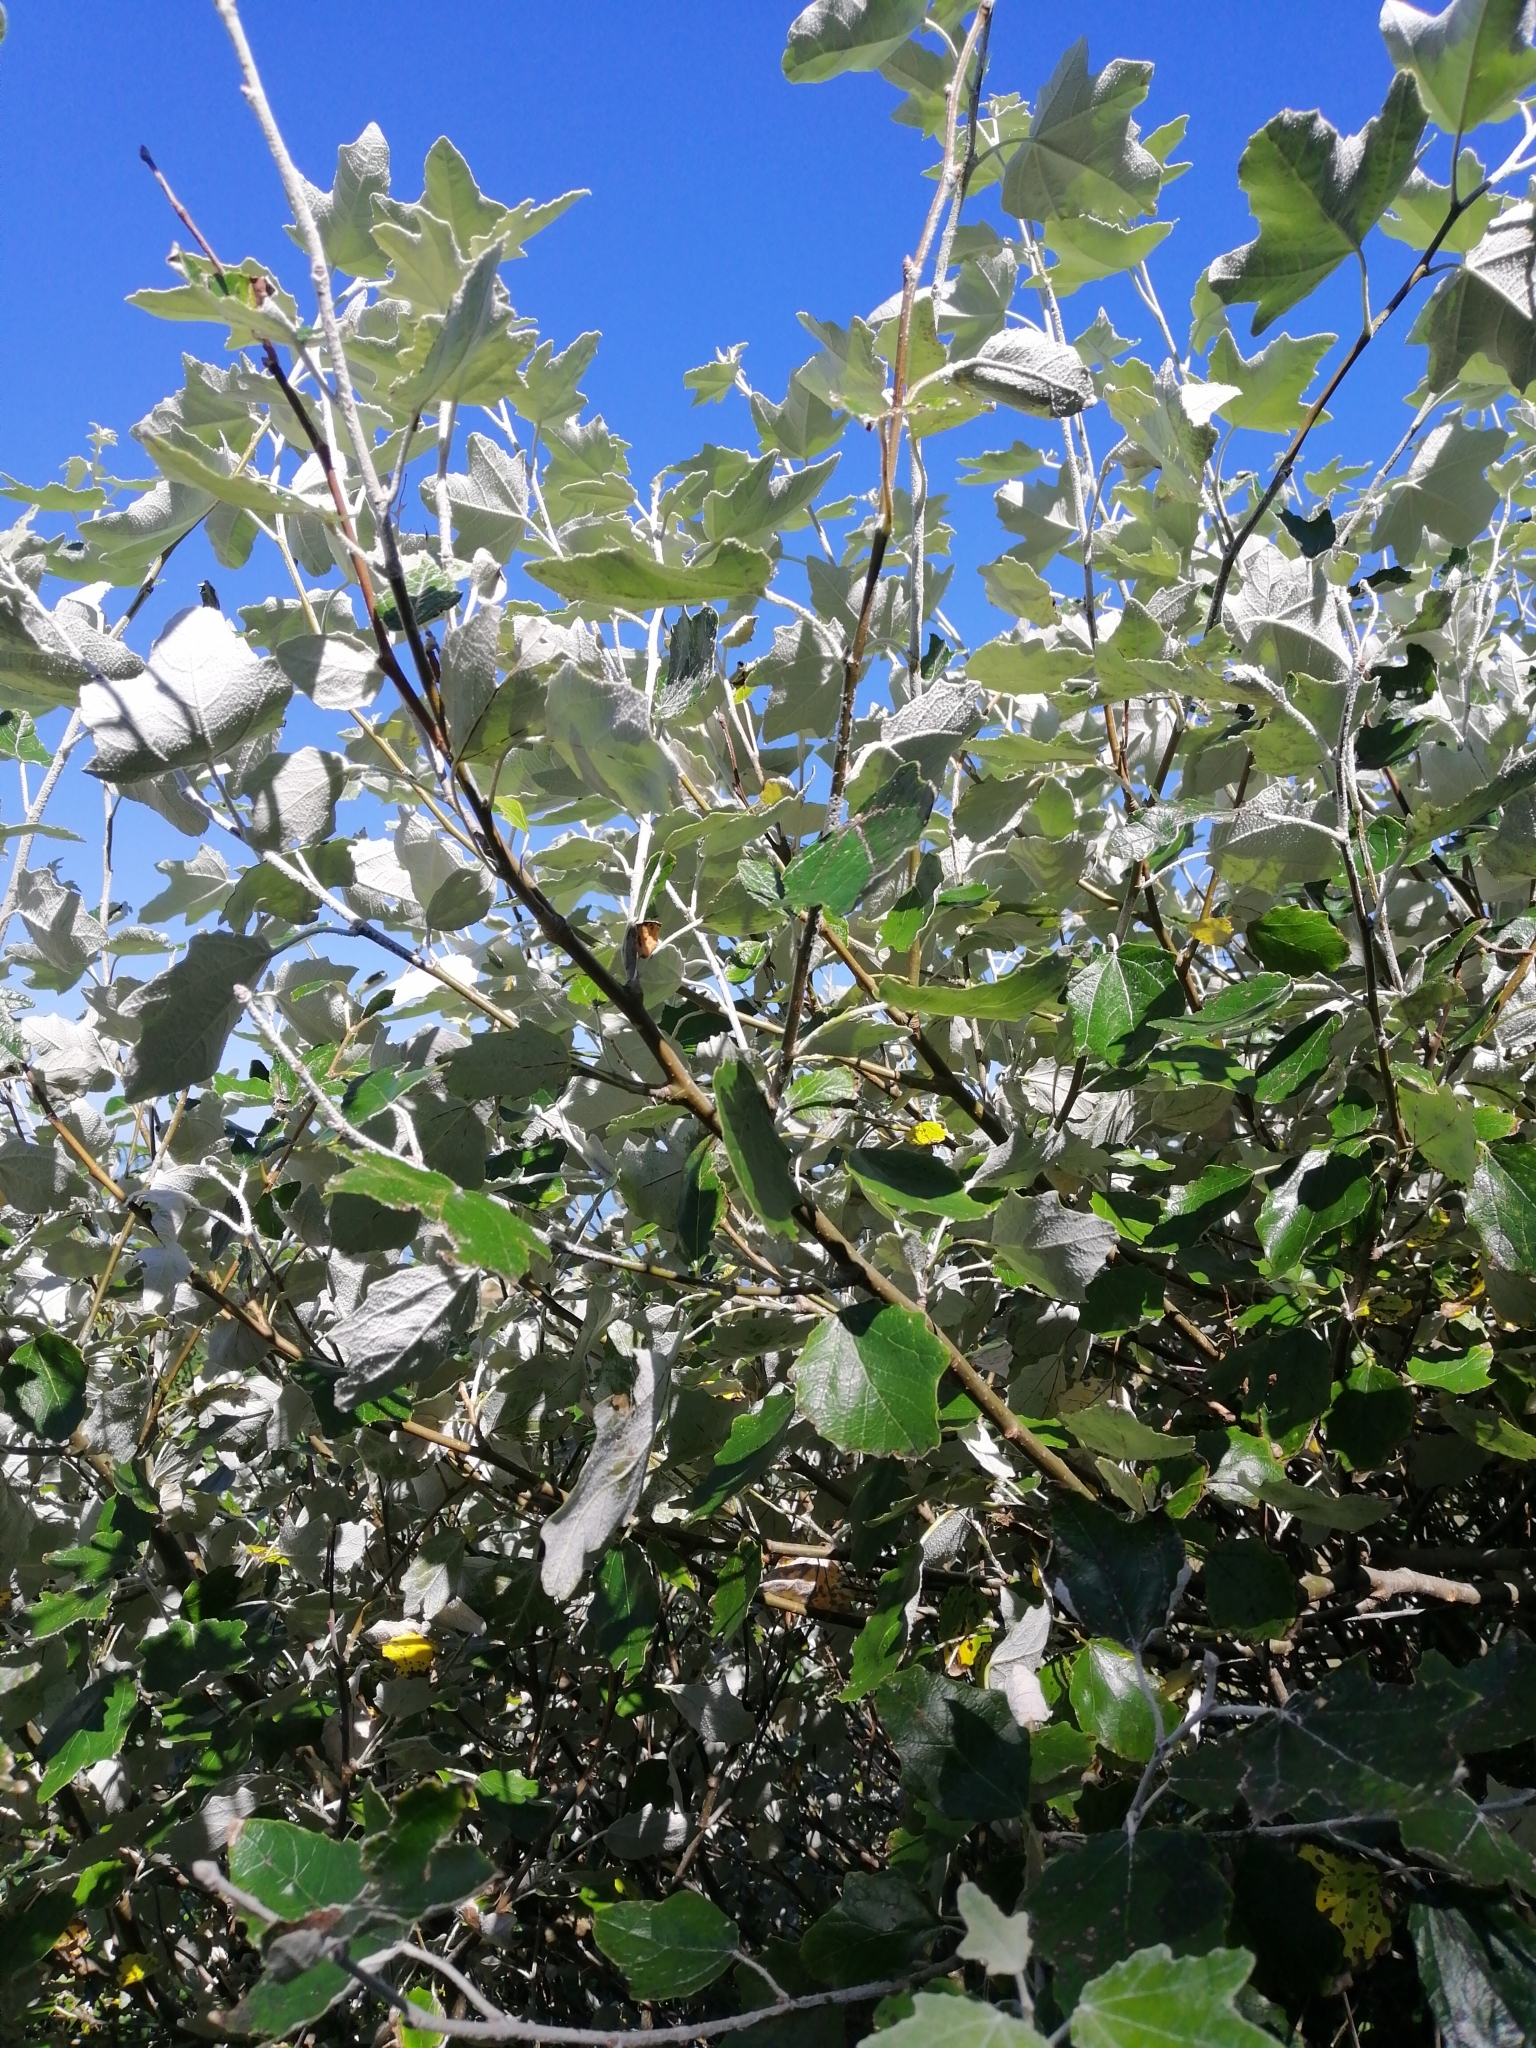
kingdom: Plantae
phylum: Tracheophyta
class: Magnoliopsida
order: Malpighiales
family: Salicaceae
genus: Populus
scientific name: Populus alba
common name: White poplar
